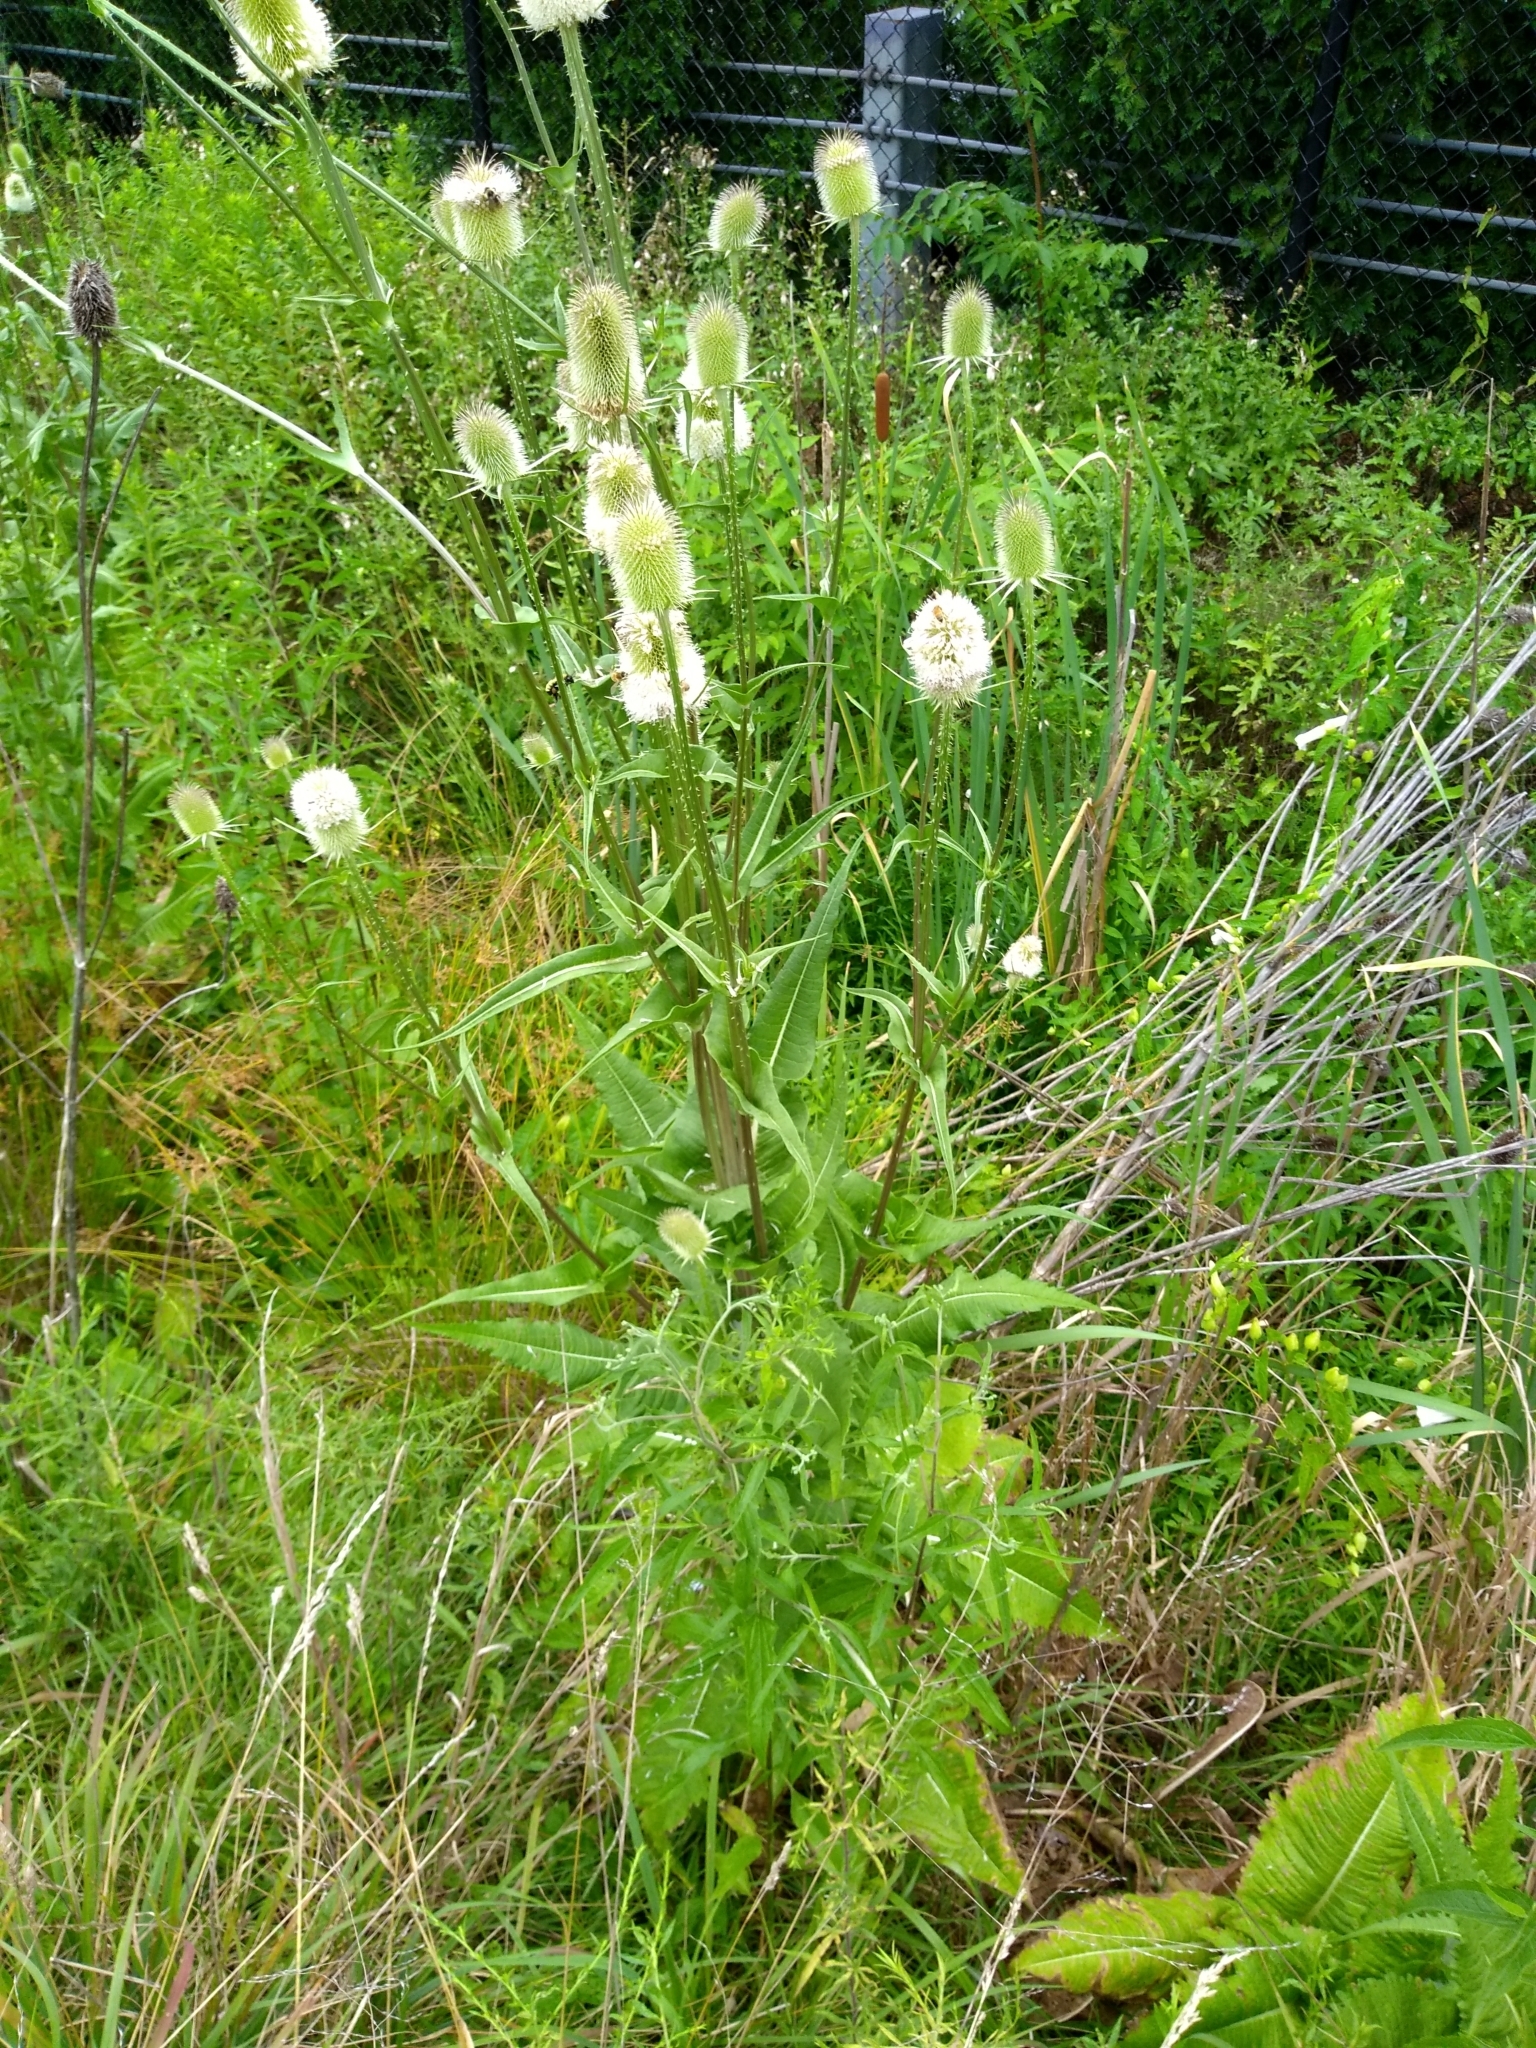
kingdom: Plantae
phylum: Tracheophyta
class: Magnoliopsida
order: Dipsacales
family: Caprifoliaceae
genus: Dipsacus
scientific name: Dipsacus laciniatus
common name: Cut-leaved teasel
